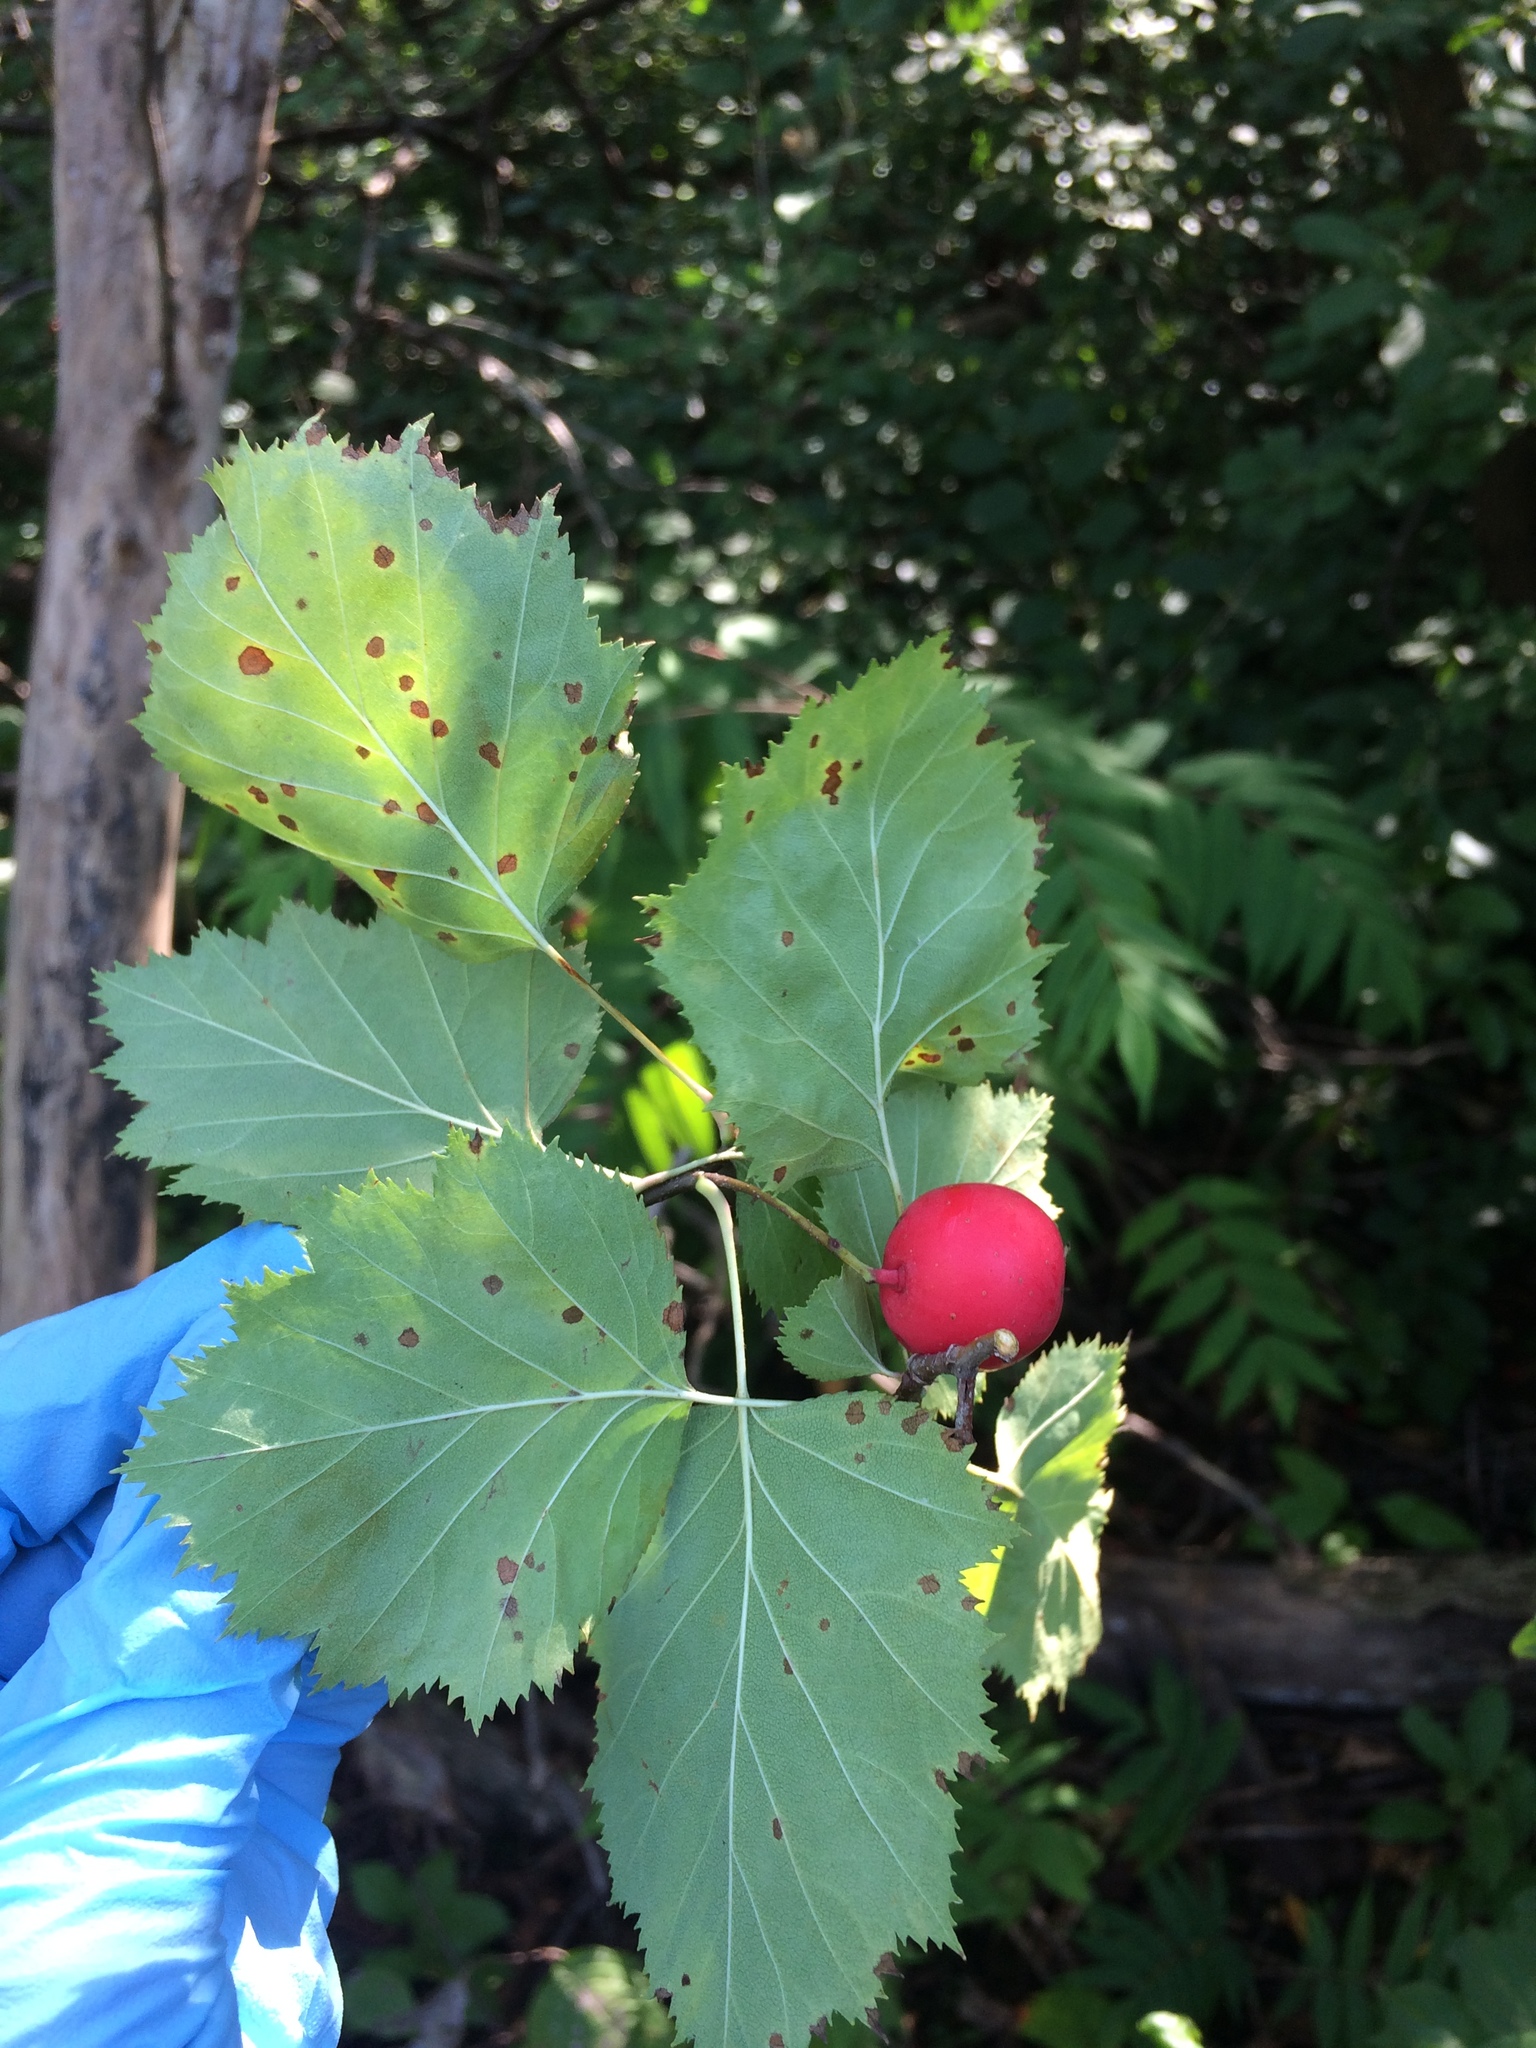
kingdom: Plantae
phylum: Tracheophyta
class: Magnoliopsida
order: Rosales
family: Rosaceae
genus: Crataegus
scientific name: Crataegus coccinioides
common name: Large-flowered cockspurthorn
